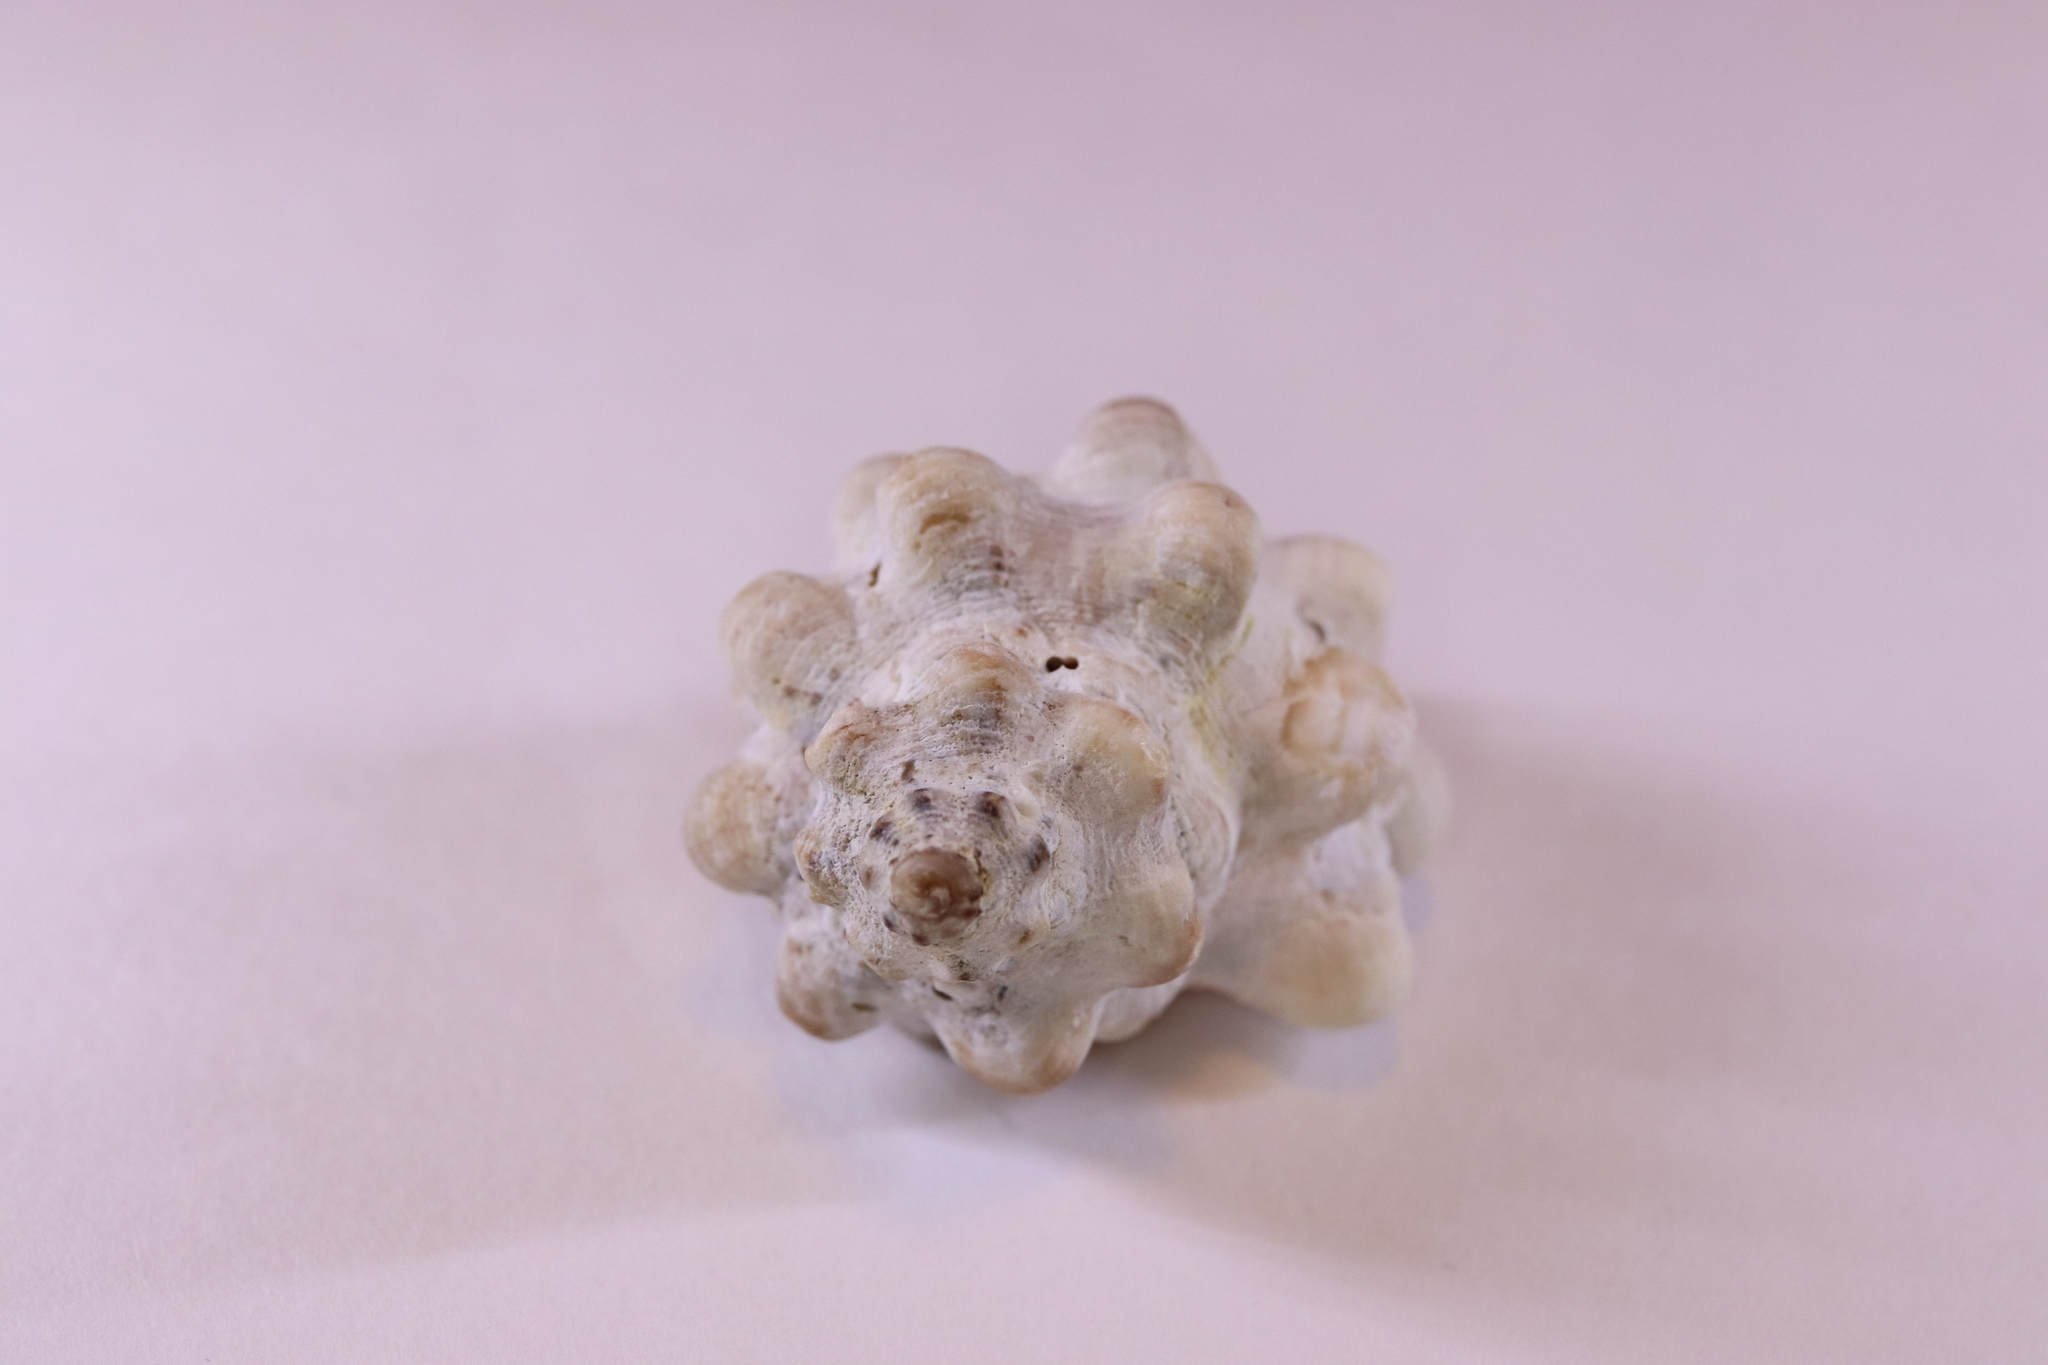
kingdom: Animalia
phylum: Mollusca
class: Gastropoda
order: Neogastropoda
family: Muricidae
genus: Reishia
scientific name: Reishia luteostoma
